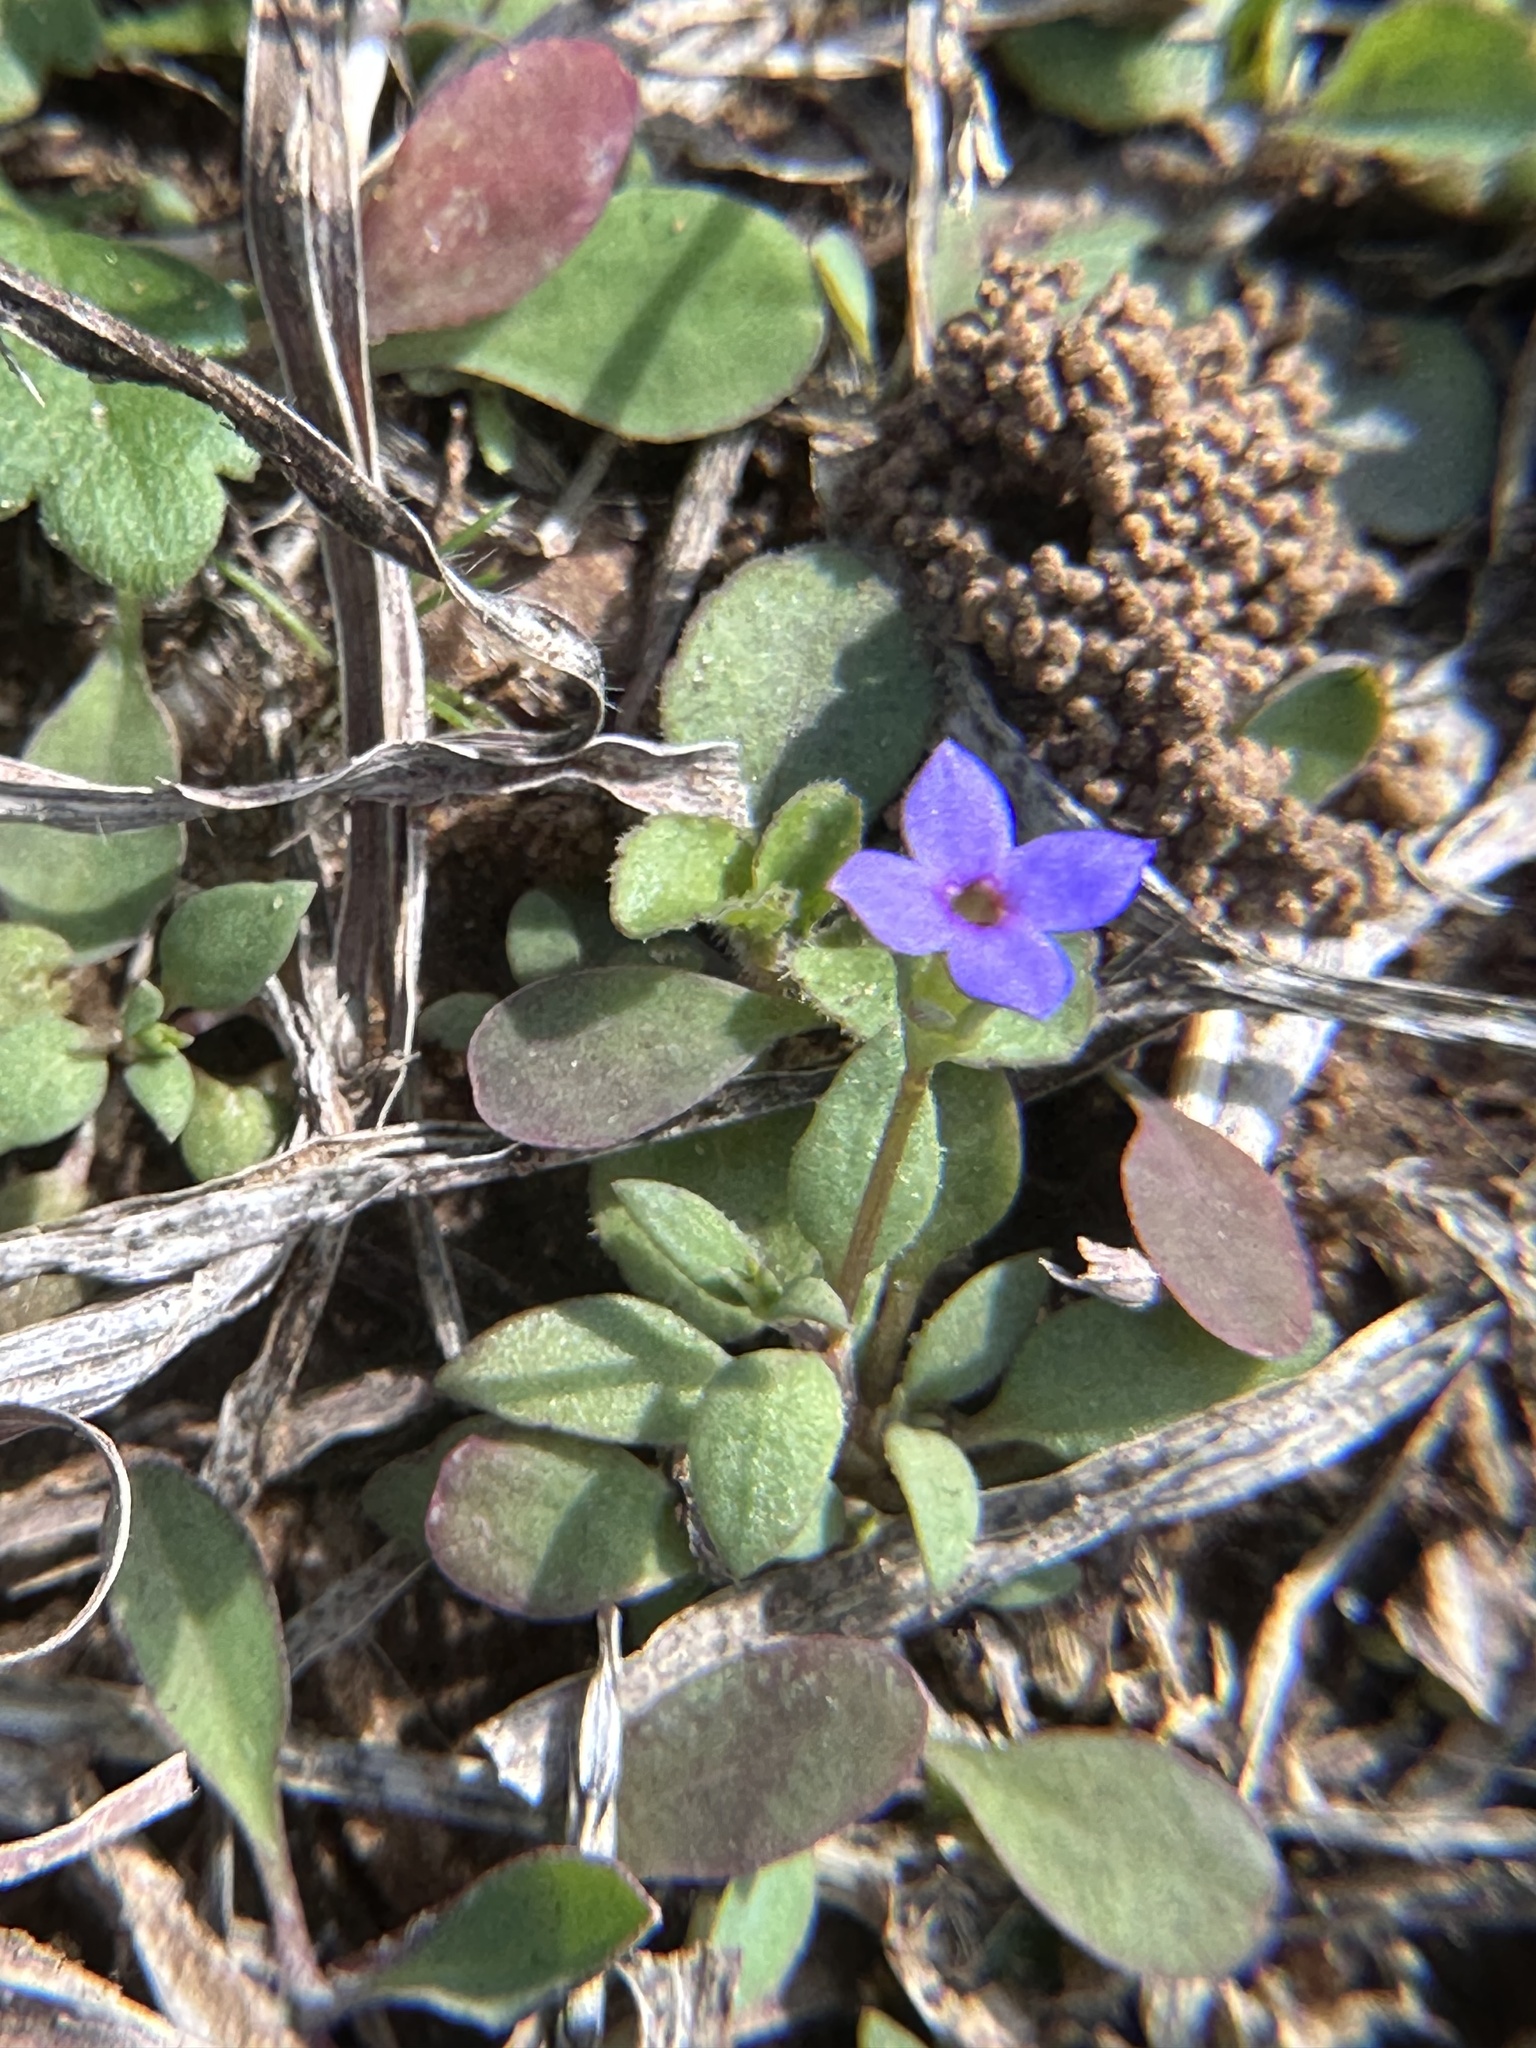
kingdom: Plantae
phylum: Tracheophyta
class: Magnoliopsida
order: Gentianales
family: Rubiaceae
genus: Houstonia
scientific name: Houstonia pusilla
